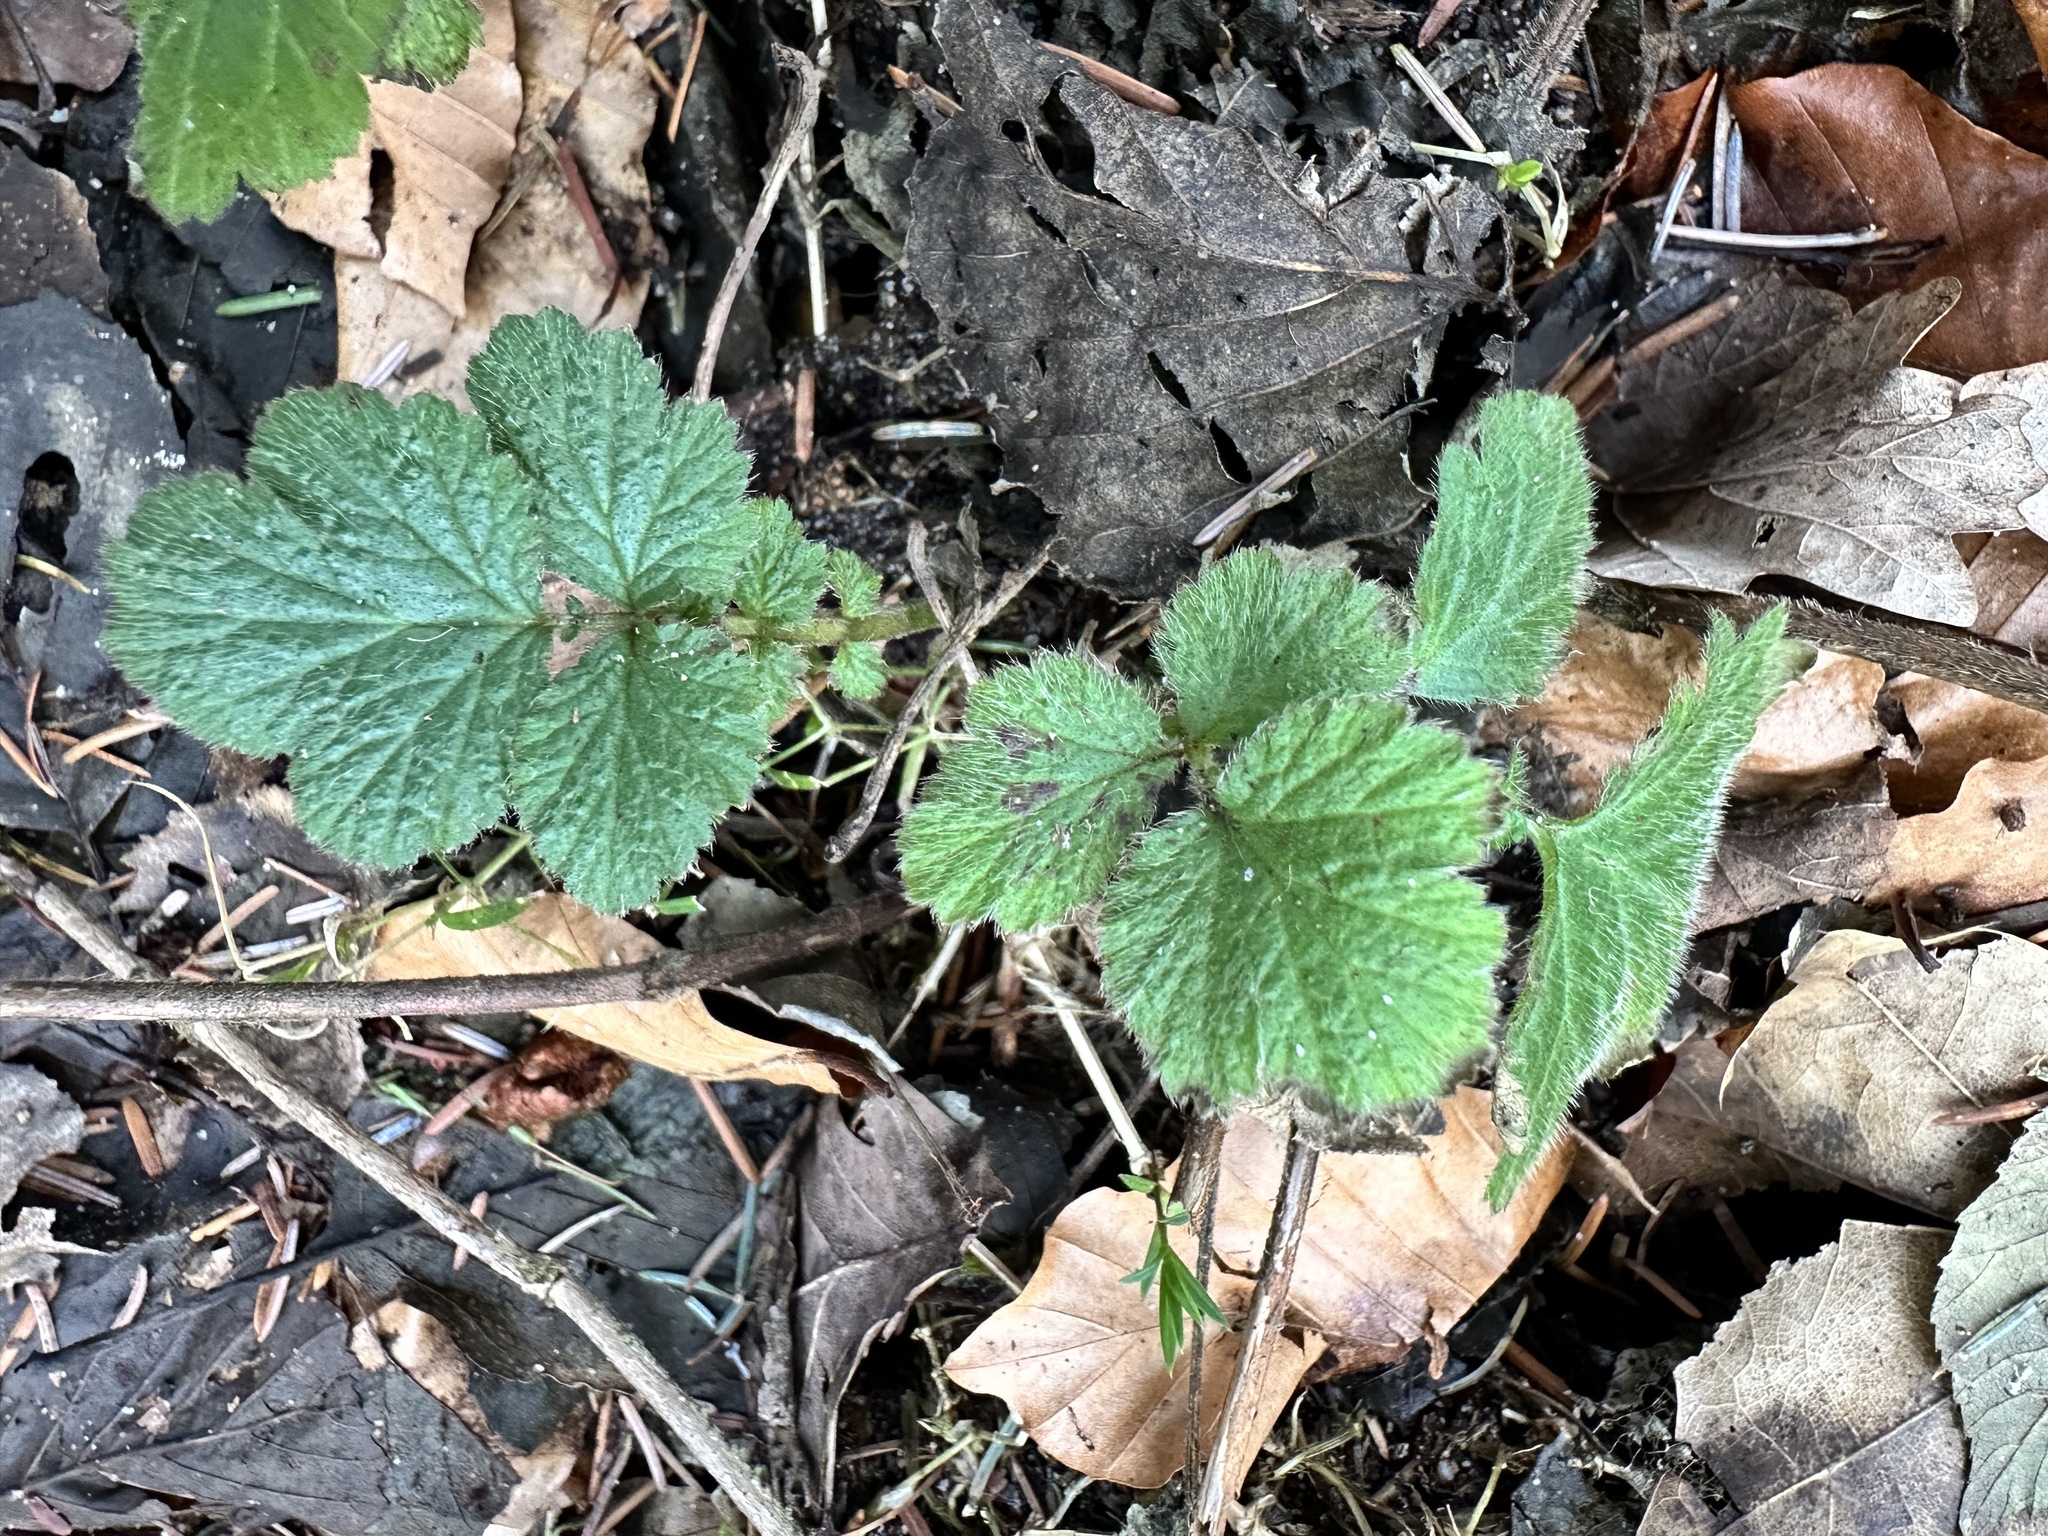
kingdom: Plantae
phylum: Tracheophyta
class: Magnoliopsida
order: Rosales
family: Rosaceae
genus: Geum
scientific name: Geum urbanum
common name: Wood avens
